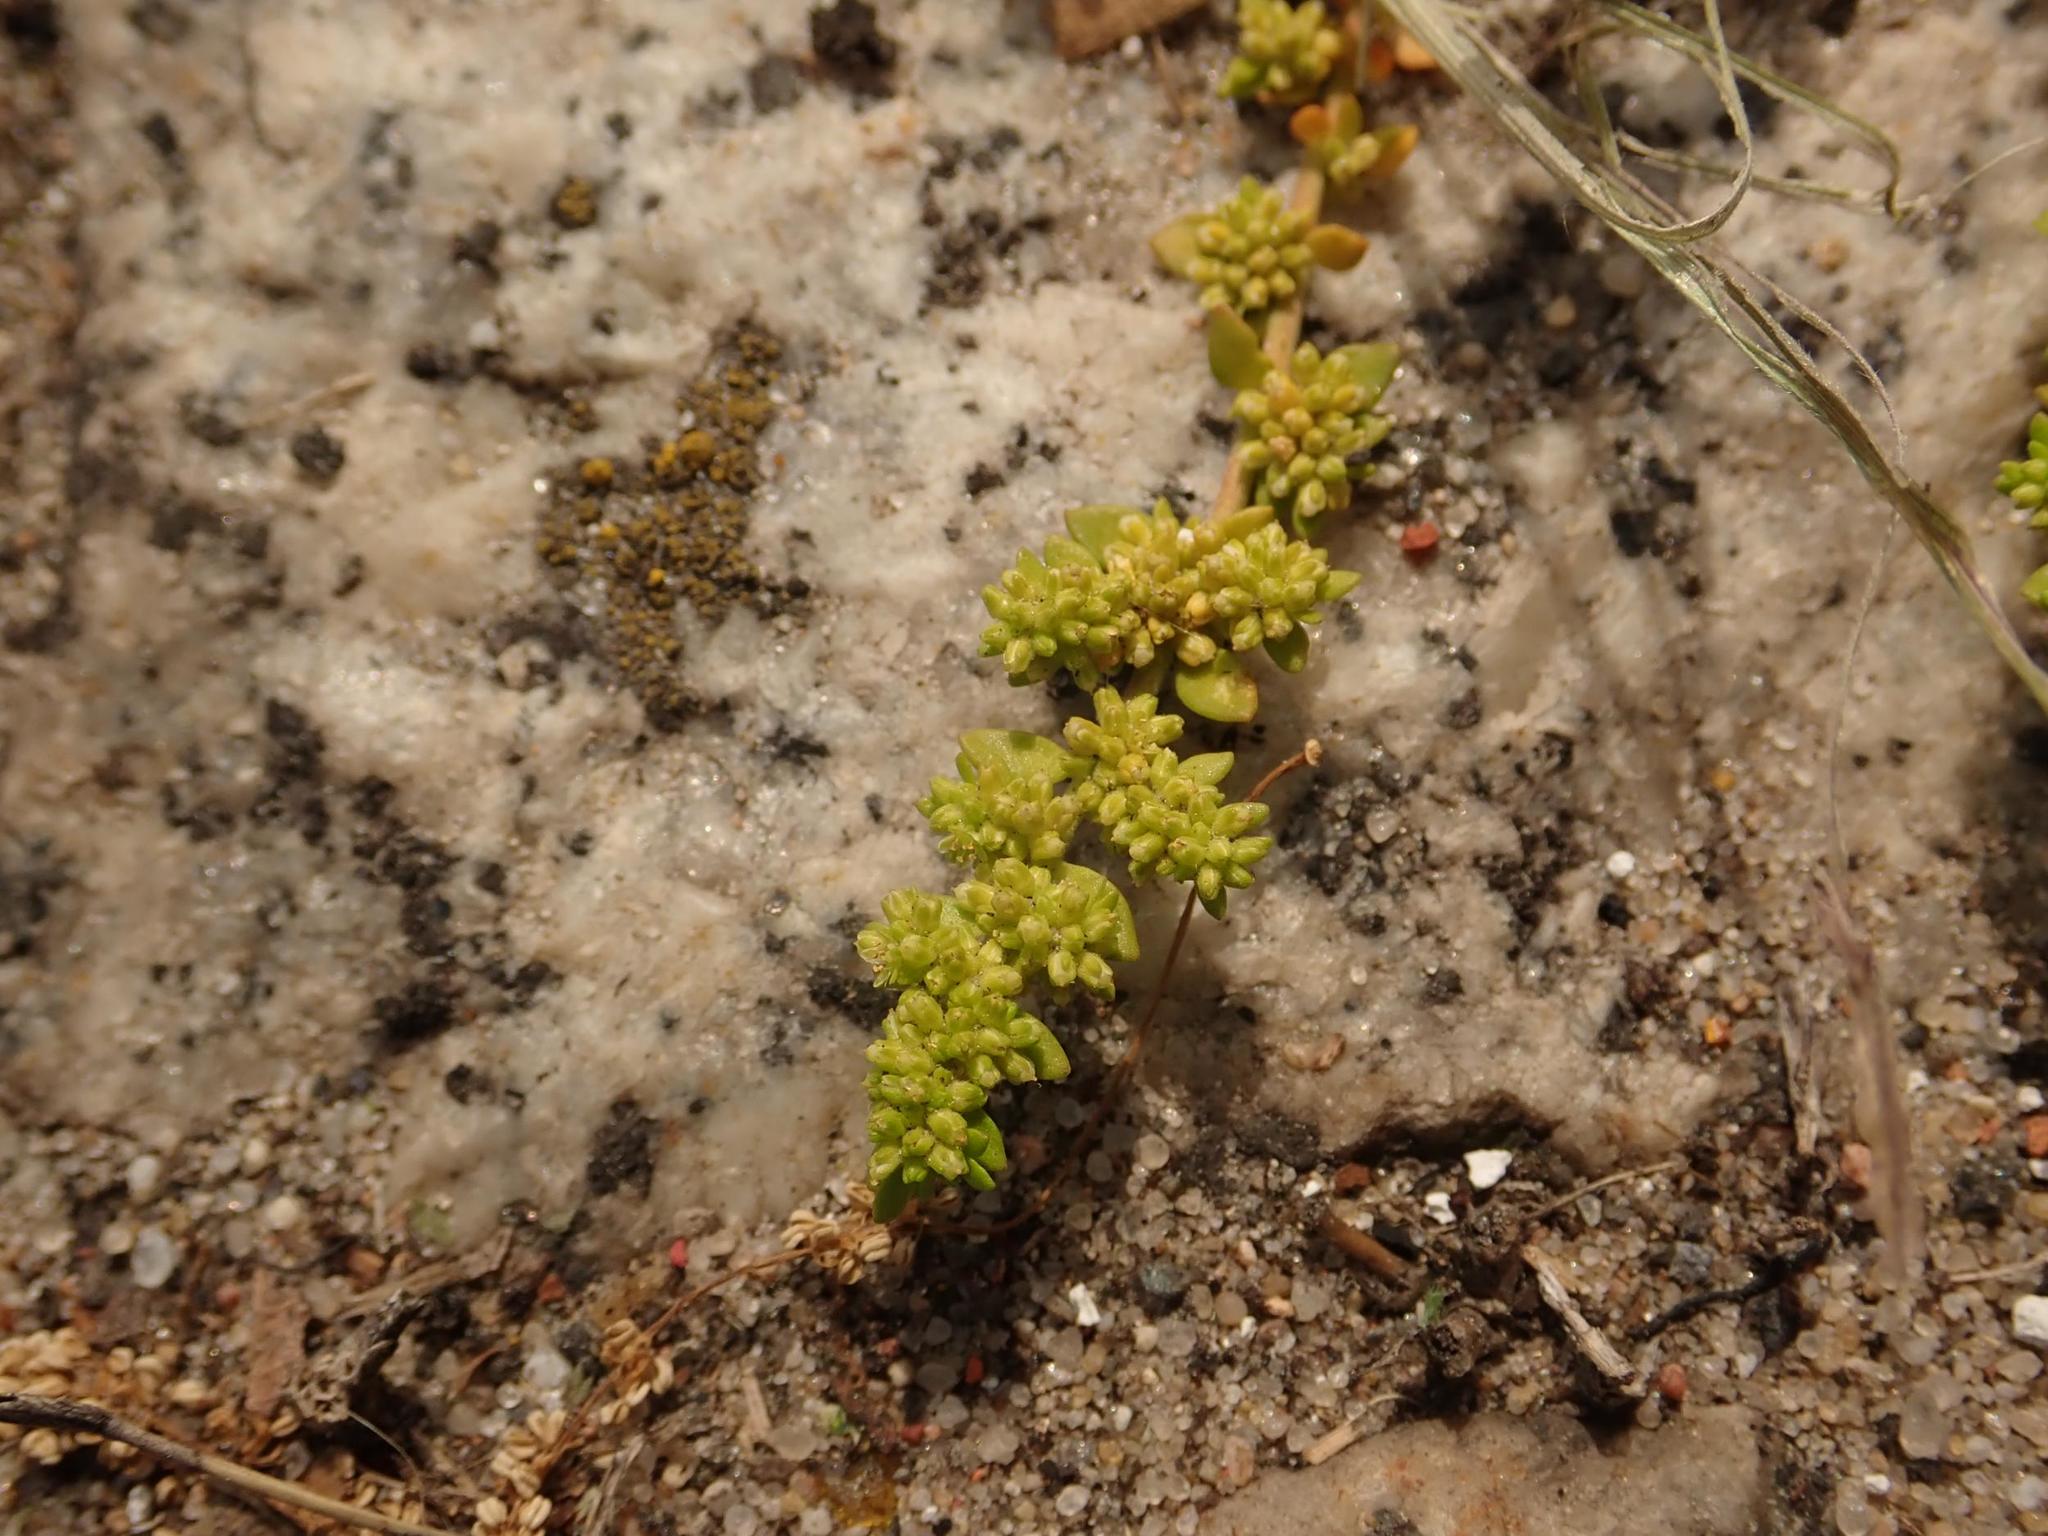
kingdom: Plantae
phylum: Tracheophyta
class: Magnoliopsida
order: Caryophyllales
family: Caryophyllaceae
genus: Herniaria
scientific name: Herniaria glabra
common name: Smooth rupturewort
